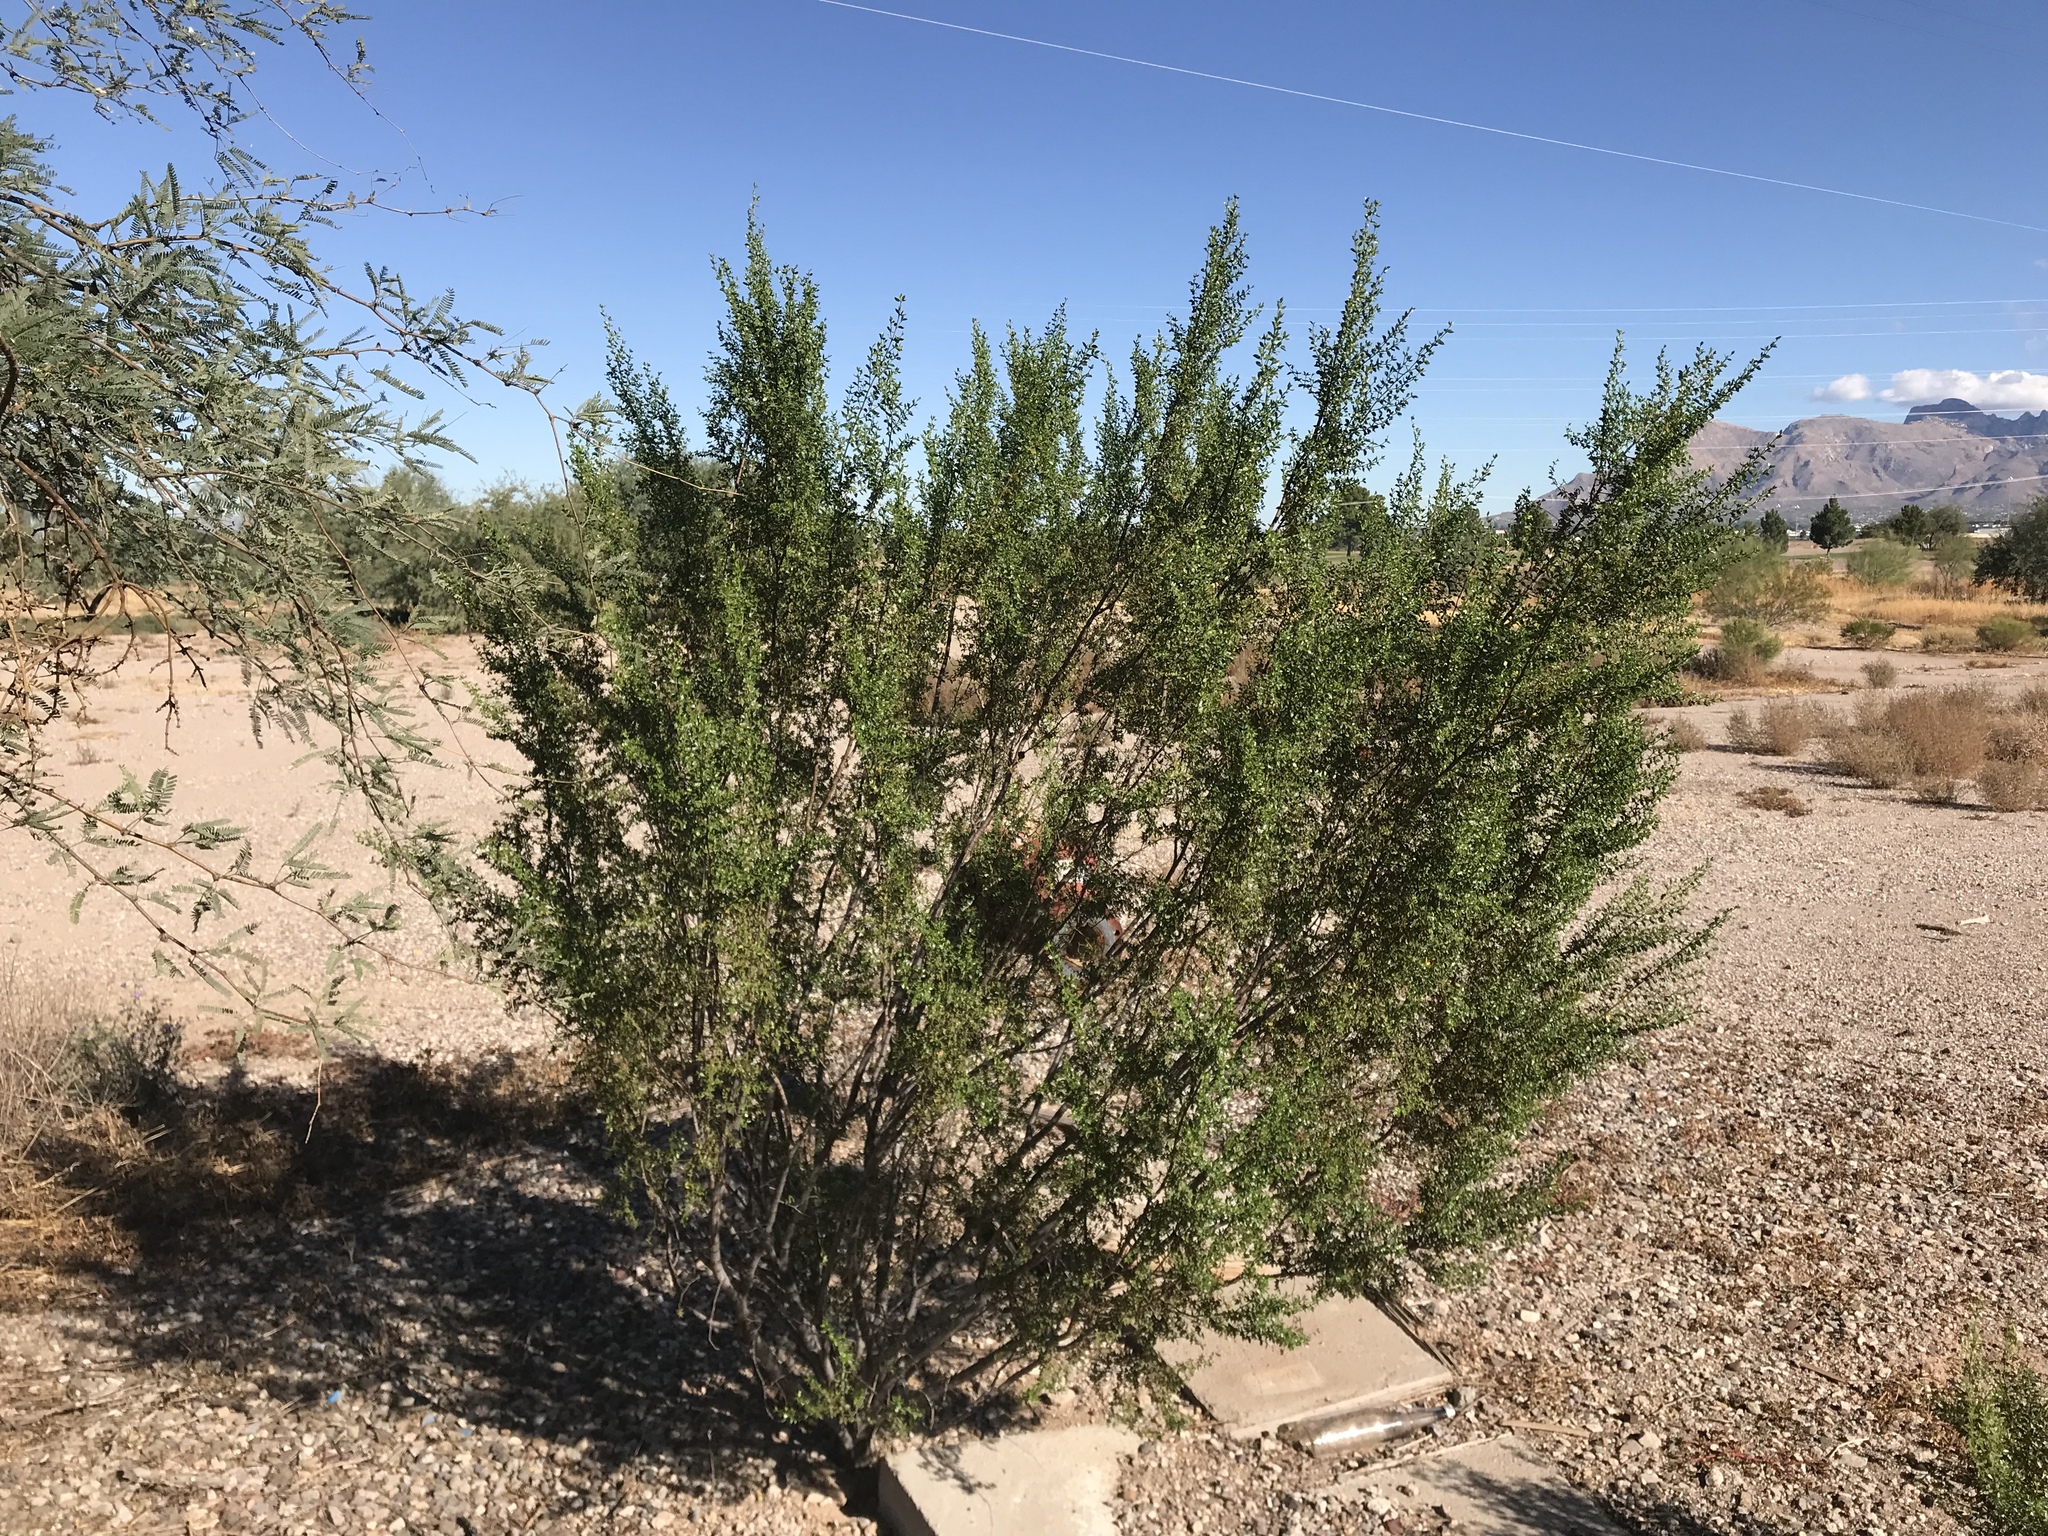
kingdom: Plantae
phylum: Tracheophyta
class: Magnoliopsida
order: Zygophyllales
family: Zygophyllaceae
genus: Larrea
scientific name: Larrea tridentata
